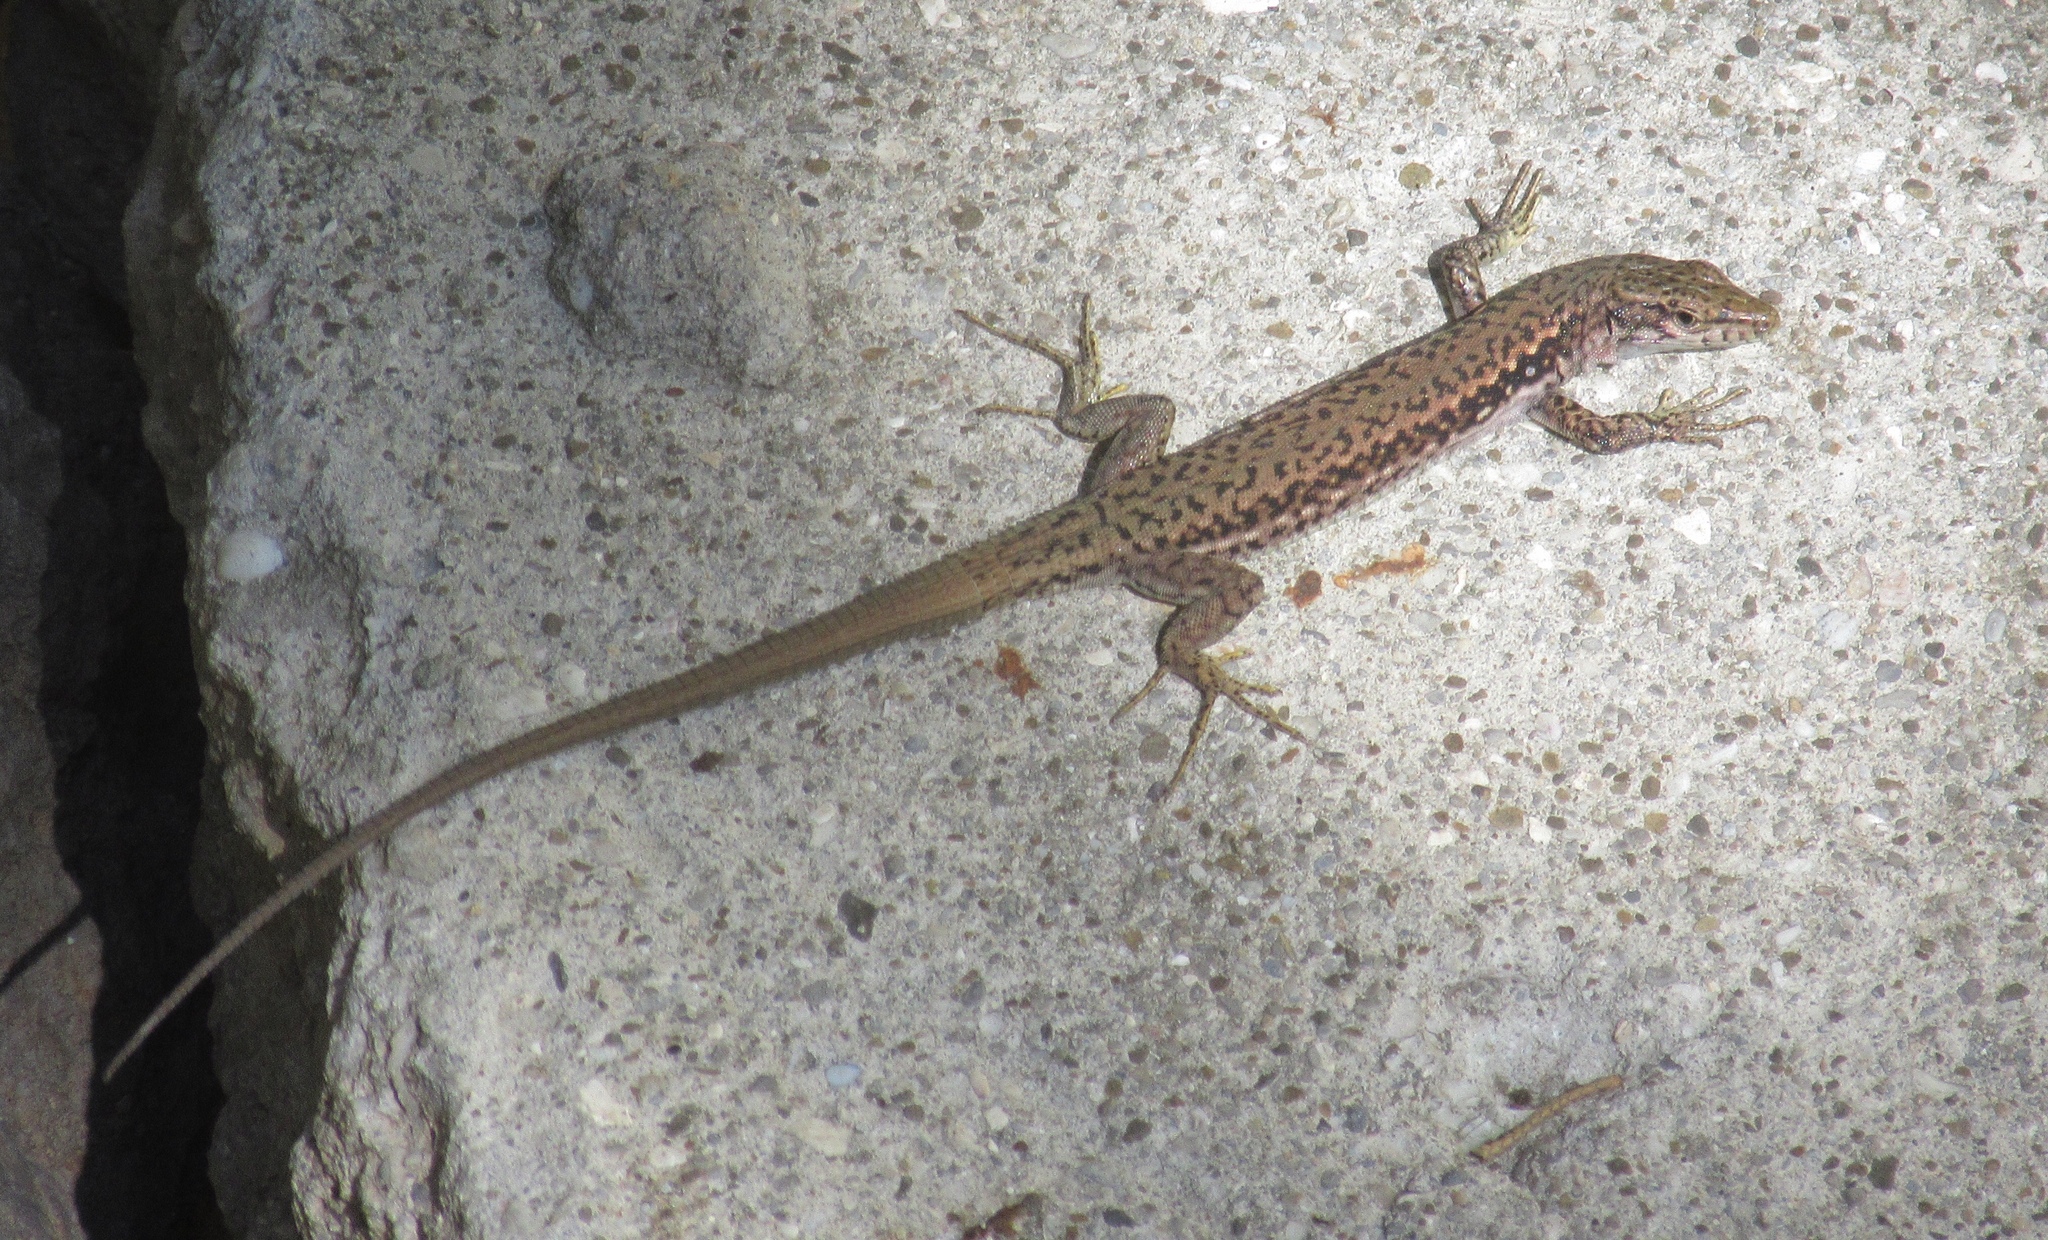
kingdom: Animalia
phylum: Chordata
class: Squamata
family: Lacertidae
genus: Darevskia
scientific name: Darevskia lindholmi
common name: Crimean rock lizard
